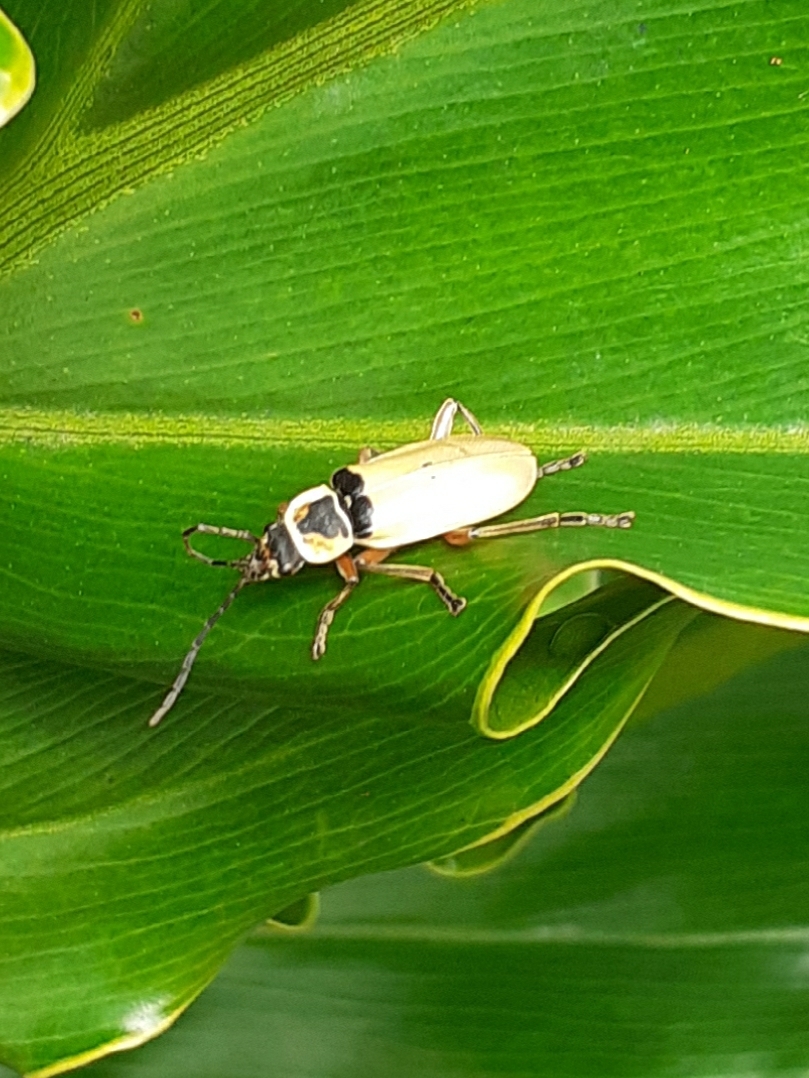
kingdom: Animalia
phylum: Arthropoda
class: Insecta
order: Coleoptera
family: Cantharidae
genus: Chauliognathus
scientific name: Chauliognathus
